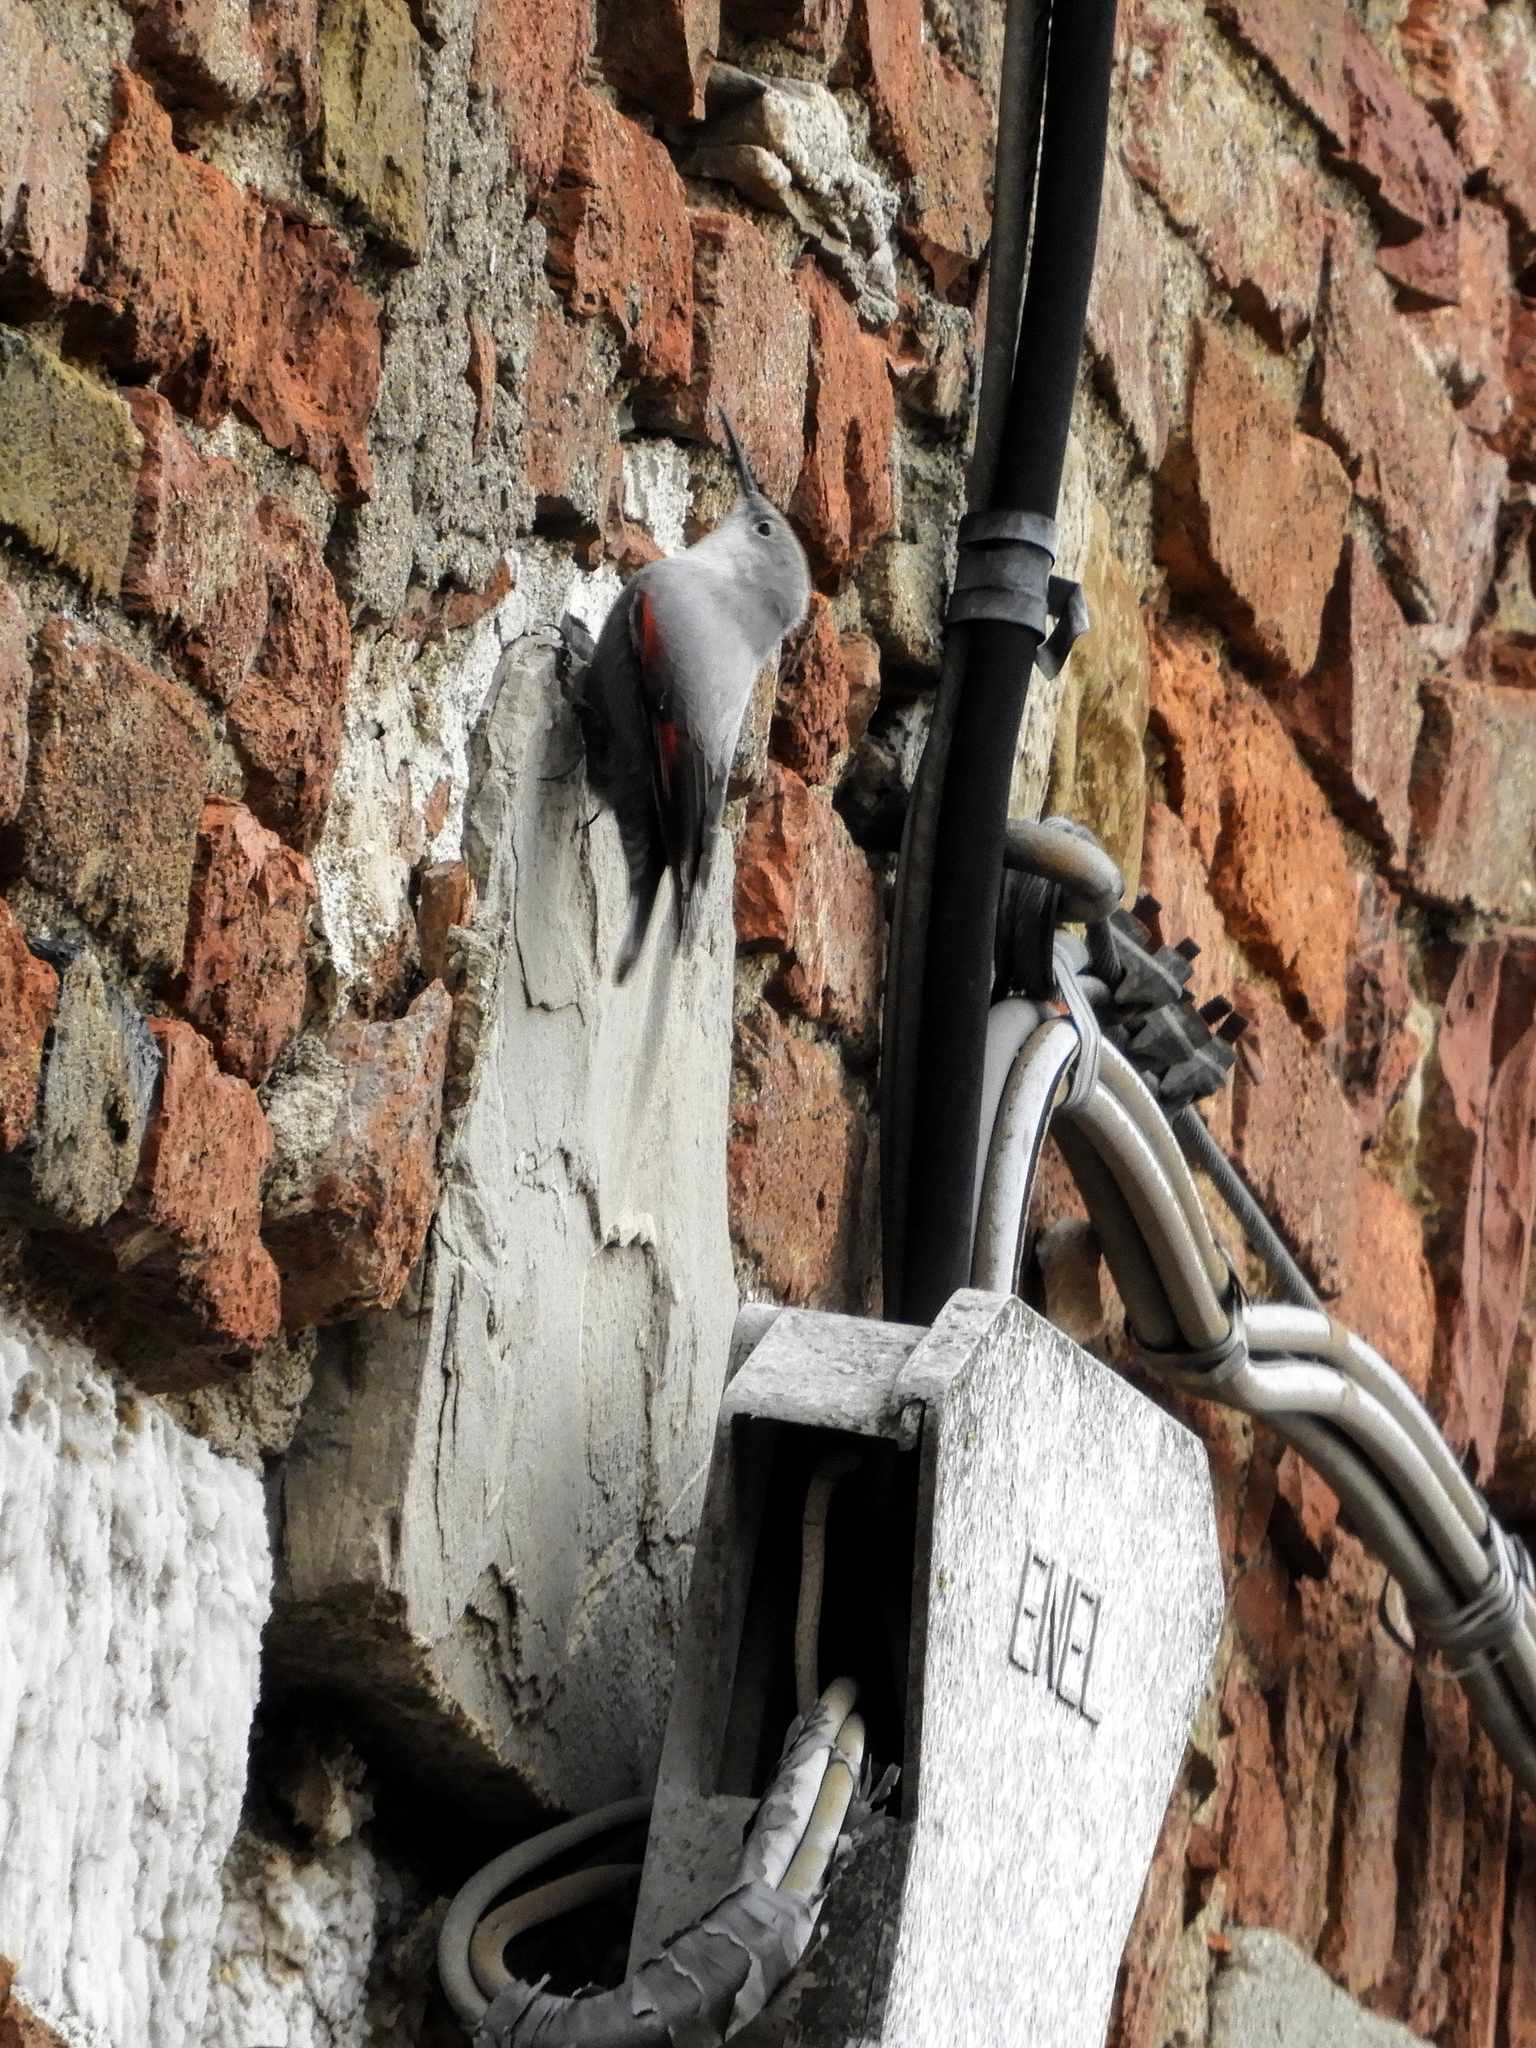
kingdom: Animalia
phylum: Chordata
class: Aves
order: Passeriformes
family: Tichodromidae
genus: Tichodroma
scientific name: Tichodroma muraria
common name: Wallcreeper
